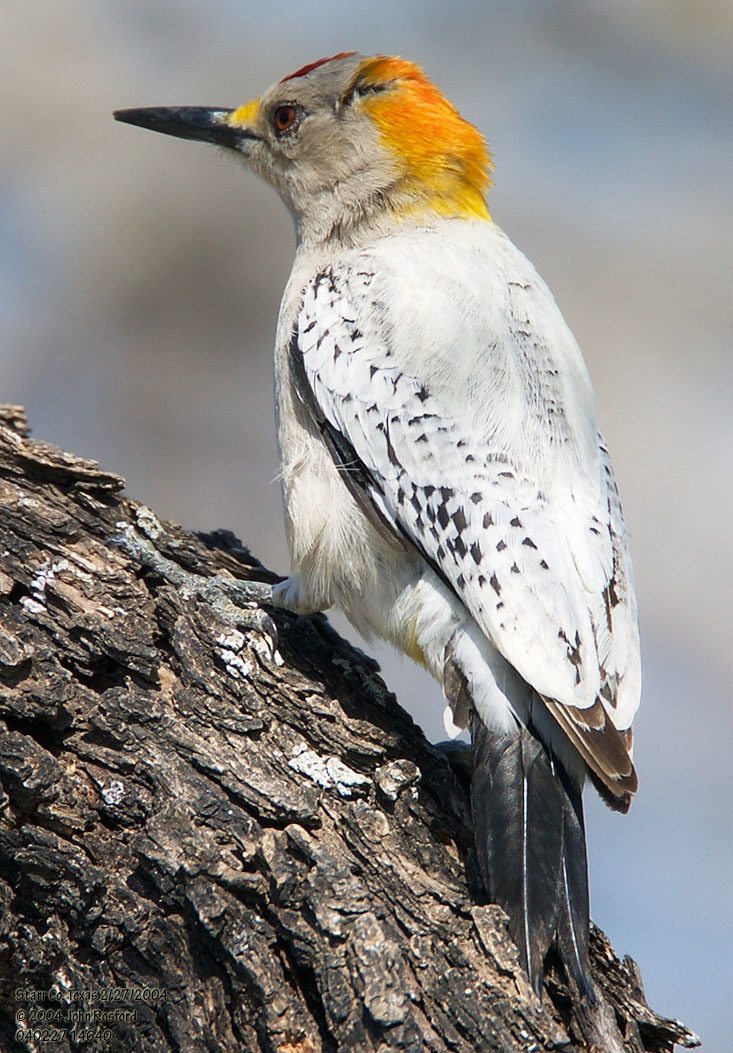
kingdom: Animalia
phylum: Chordata
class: Aves
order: Piciformes
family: Picidae
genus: Melanerpes
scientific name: Melanerpes aurifrons
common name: Golden-fronted woodpecker
